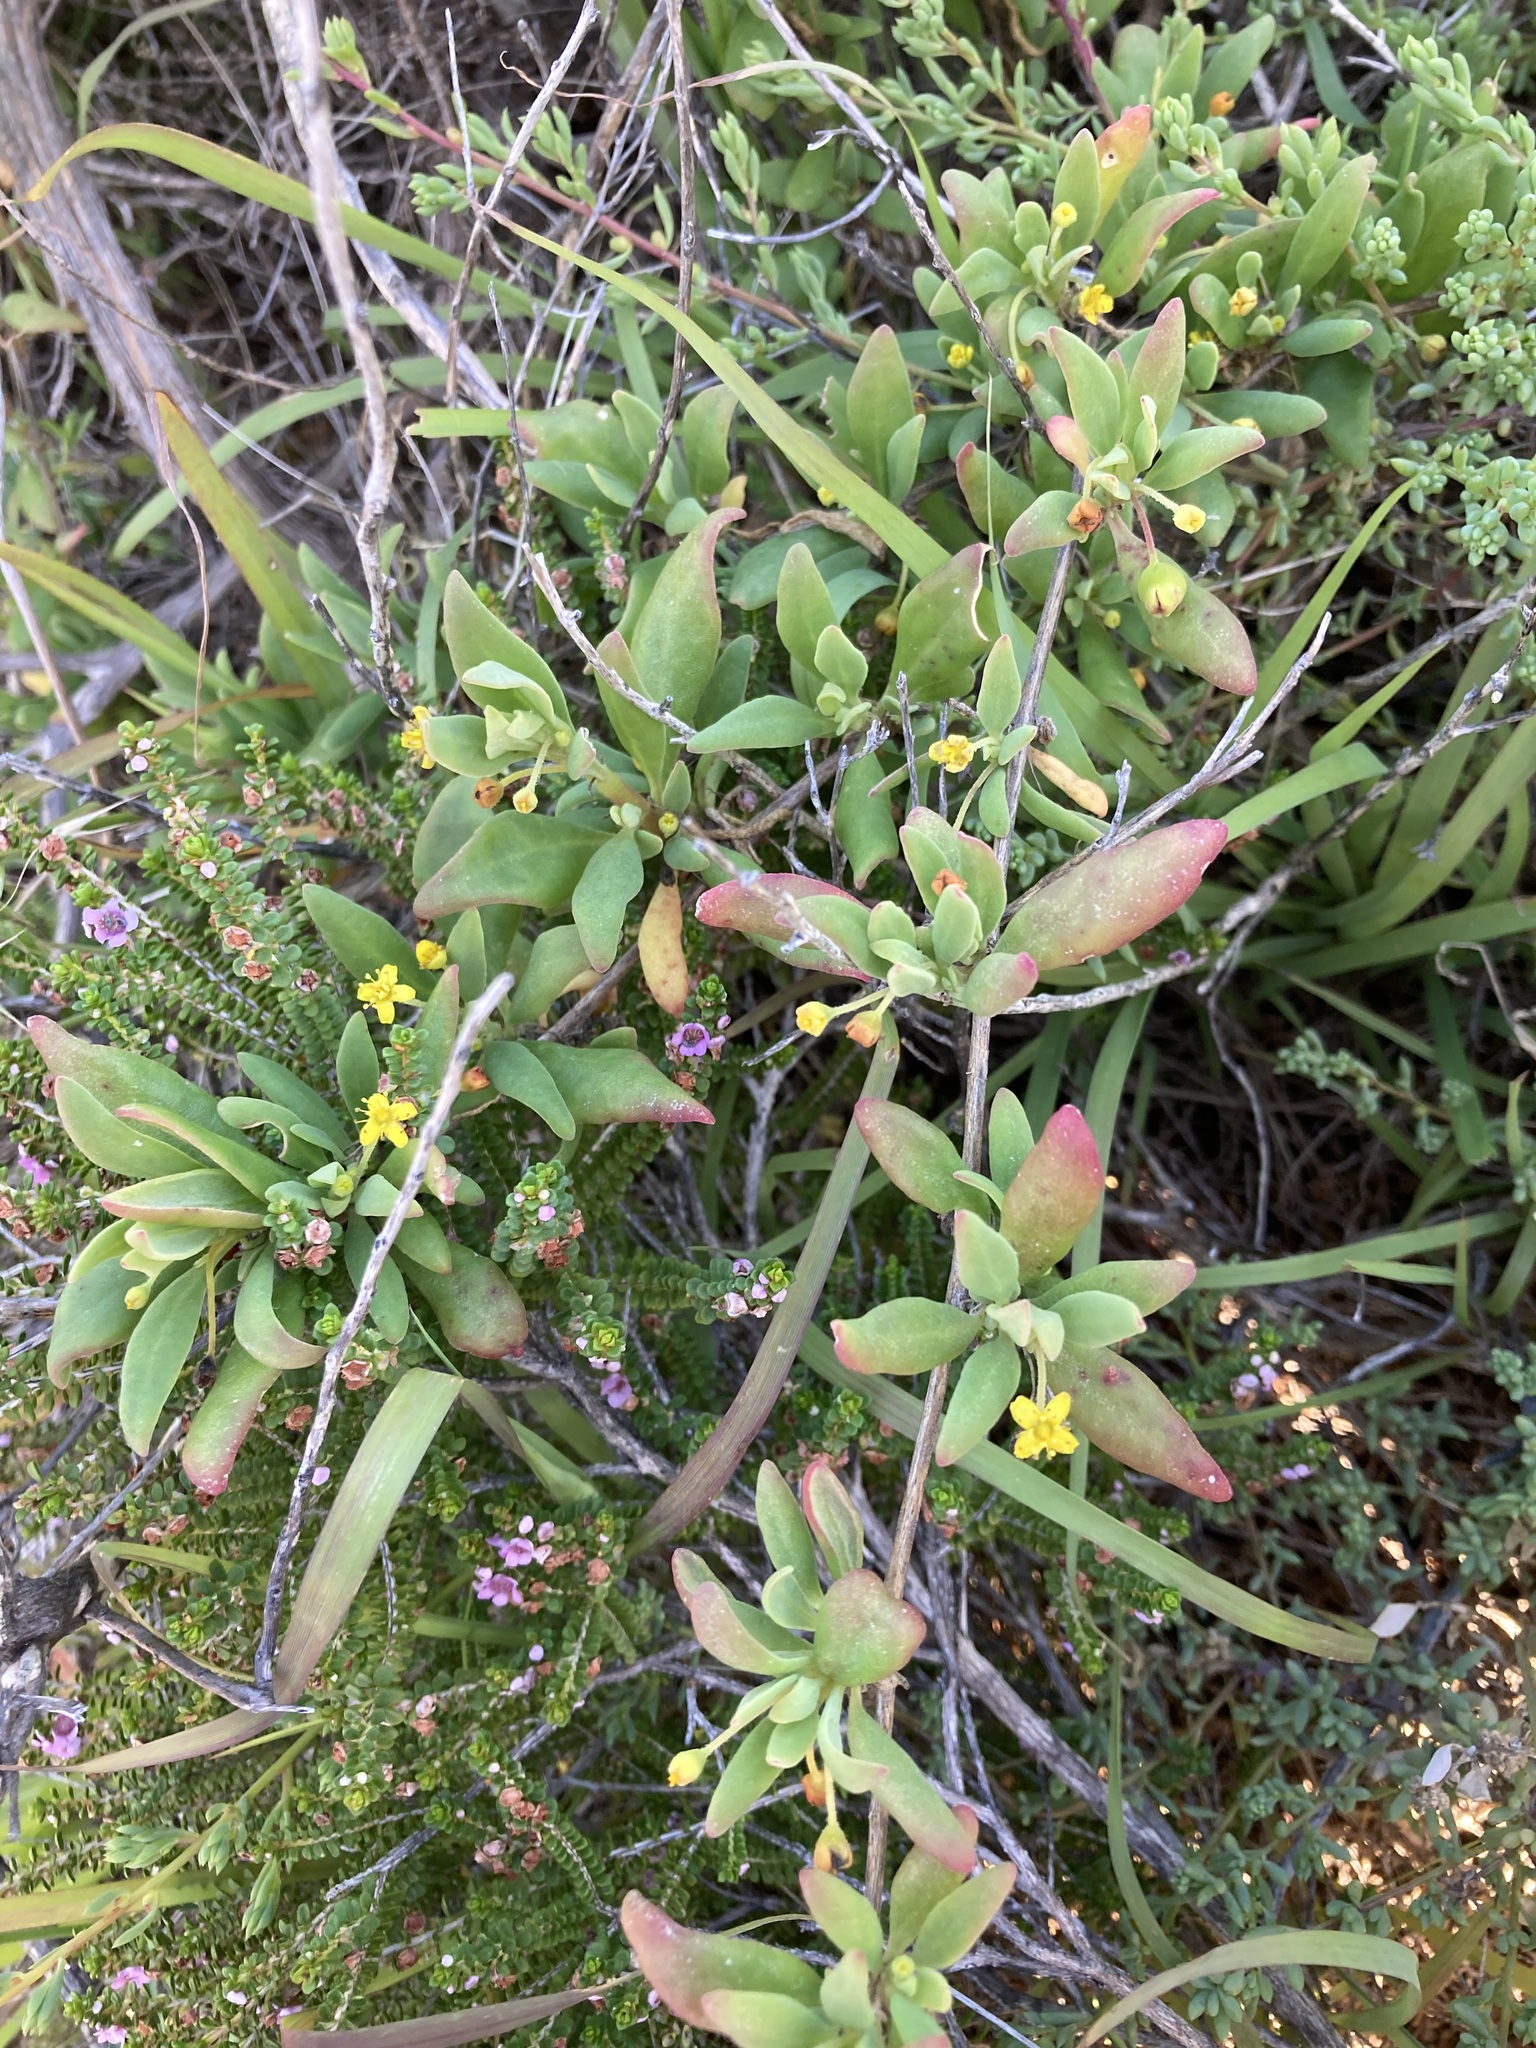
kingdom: Plantae
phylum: Tracheophyta
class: Magnoliopsida
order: Caryophyllales
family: Aizoaceae
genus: Tetragonia
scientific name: Tetragonia implexicoma
